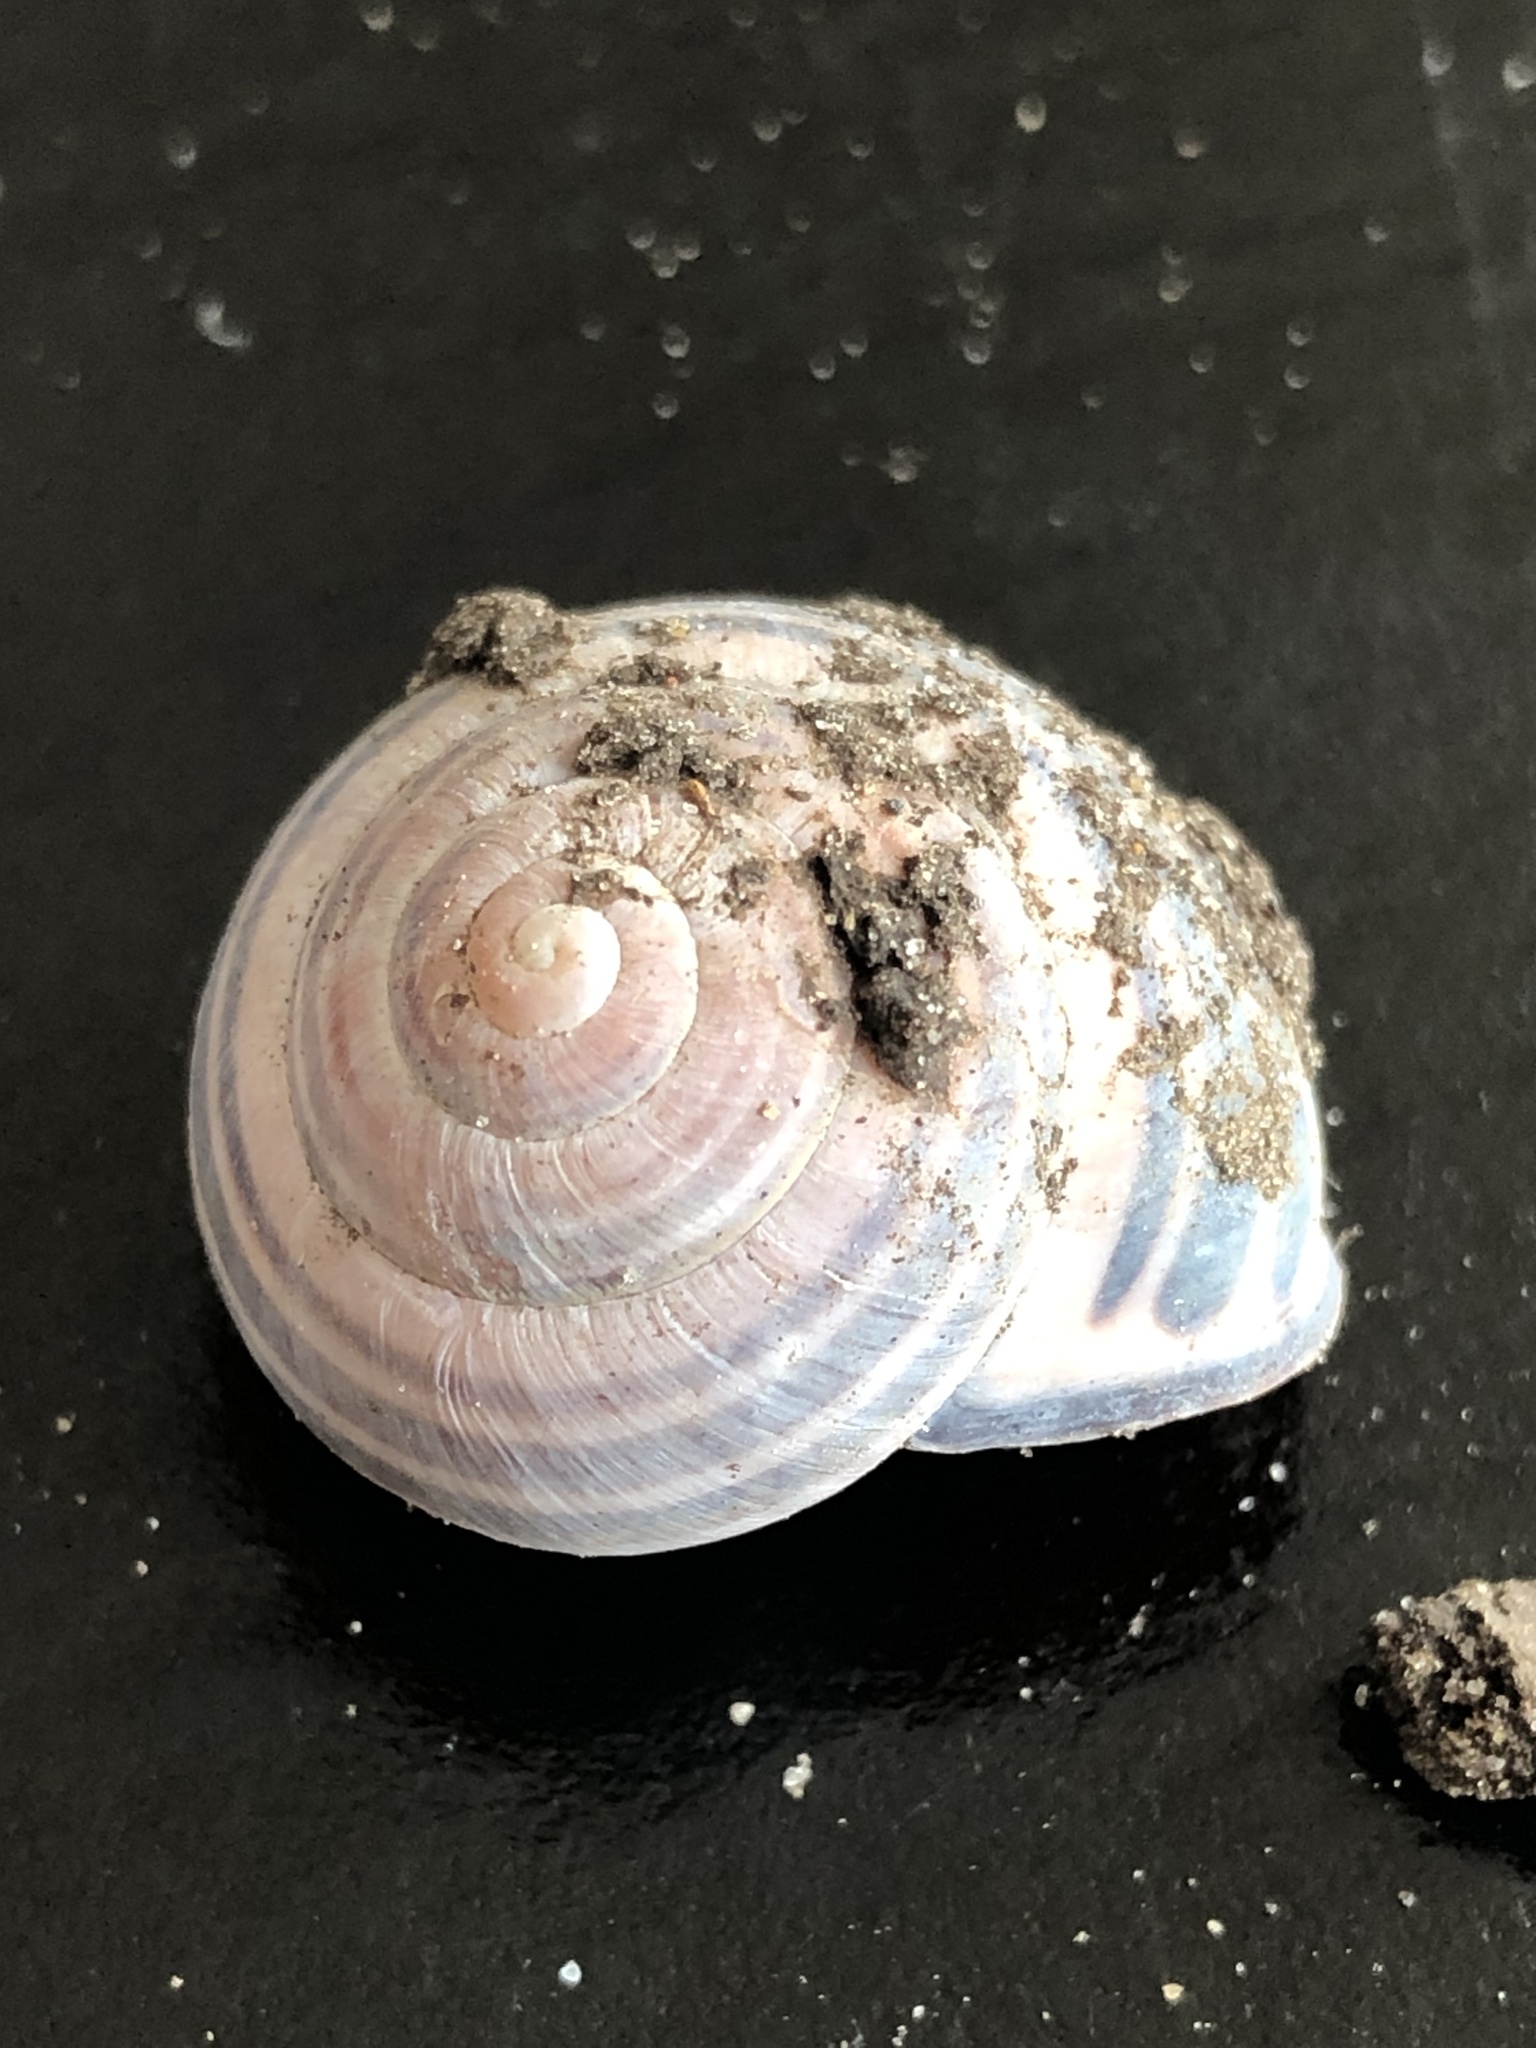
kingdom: Animalia
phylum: Mollusca
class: Gastropoda
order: Stylommatophora
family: Helicidae
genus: Cepaea
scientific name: Cepaea nemoralis
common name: Grovesnail
